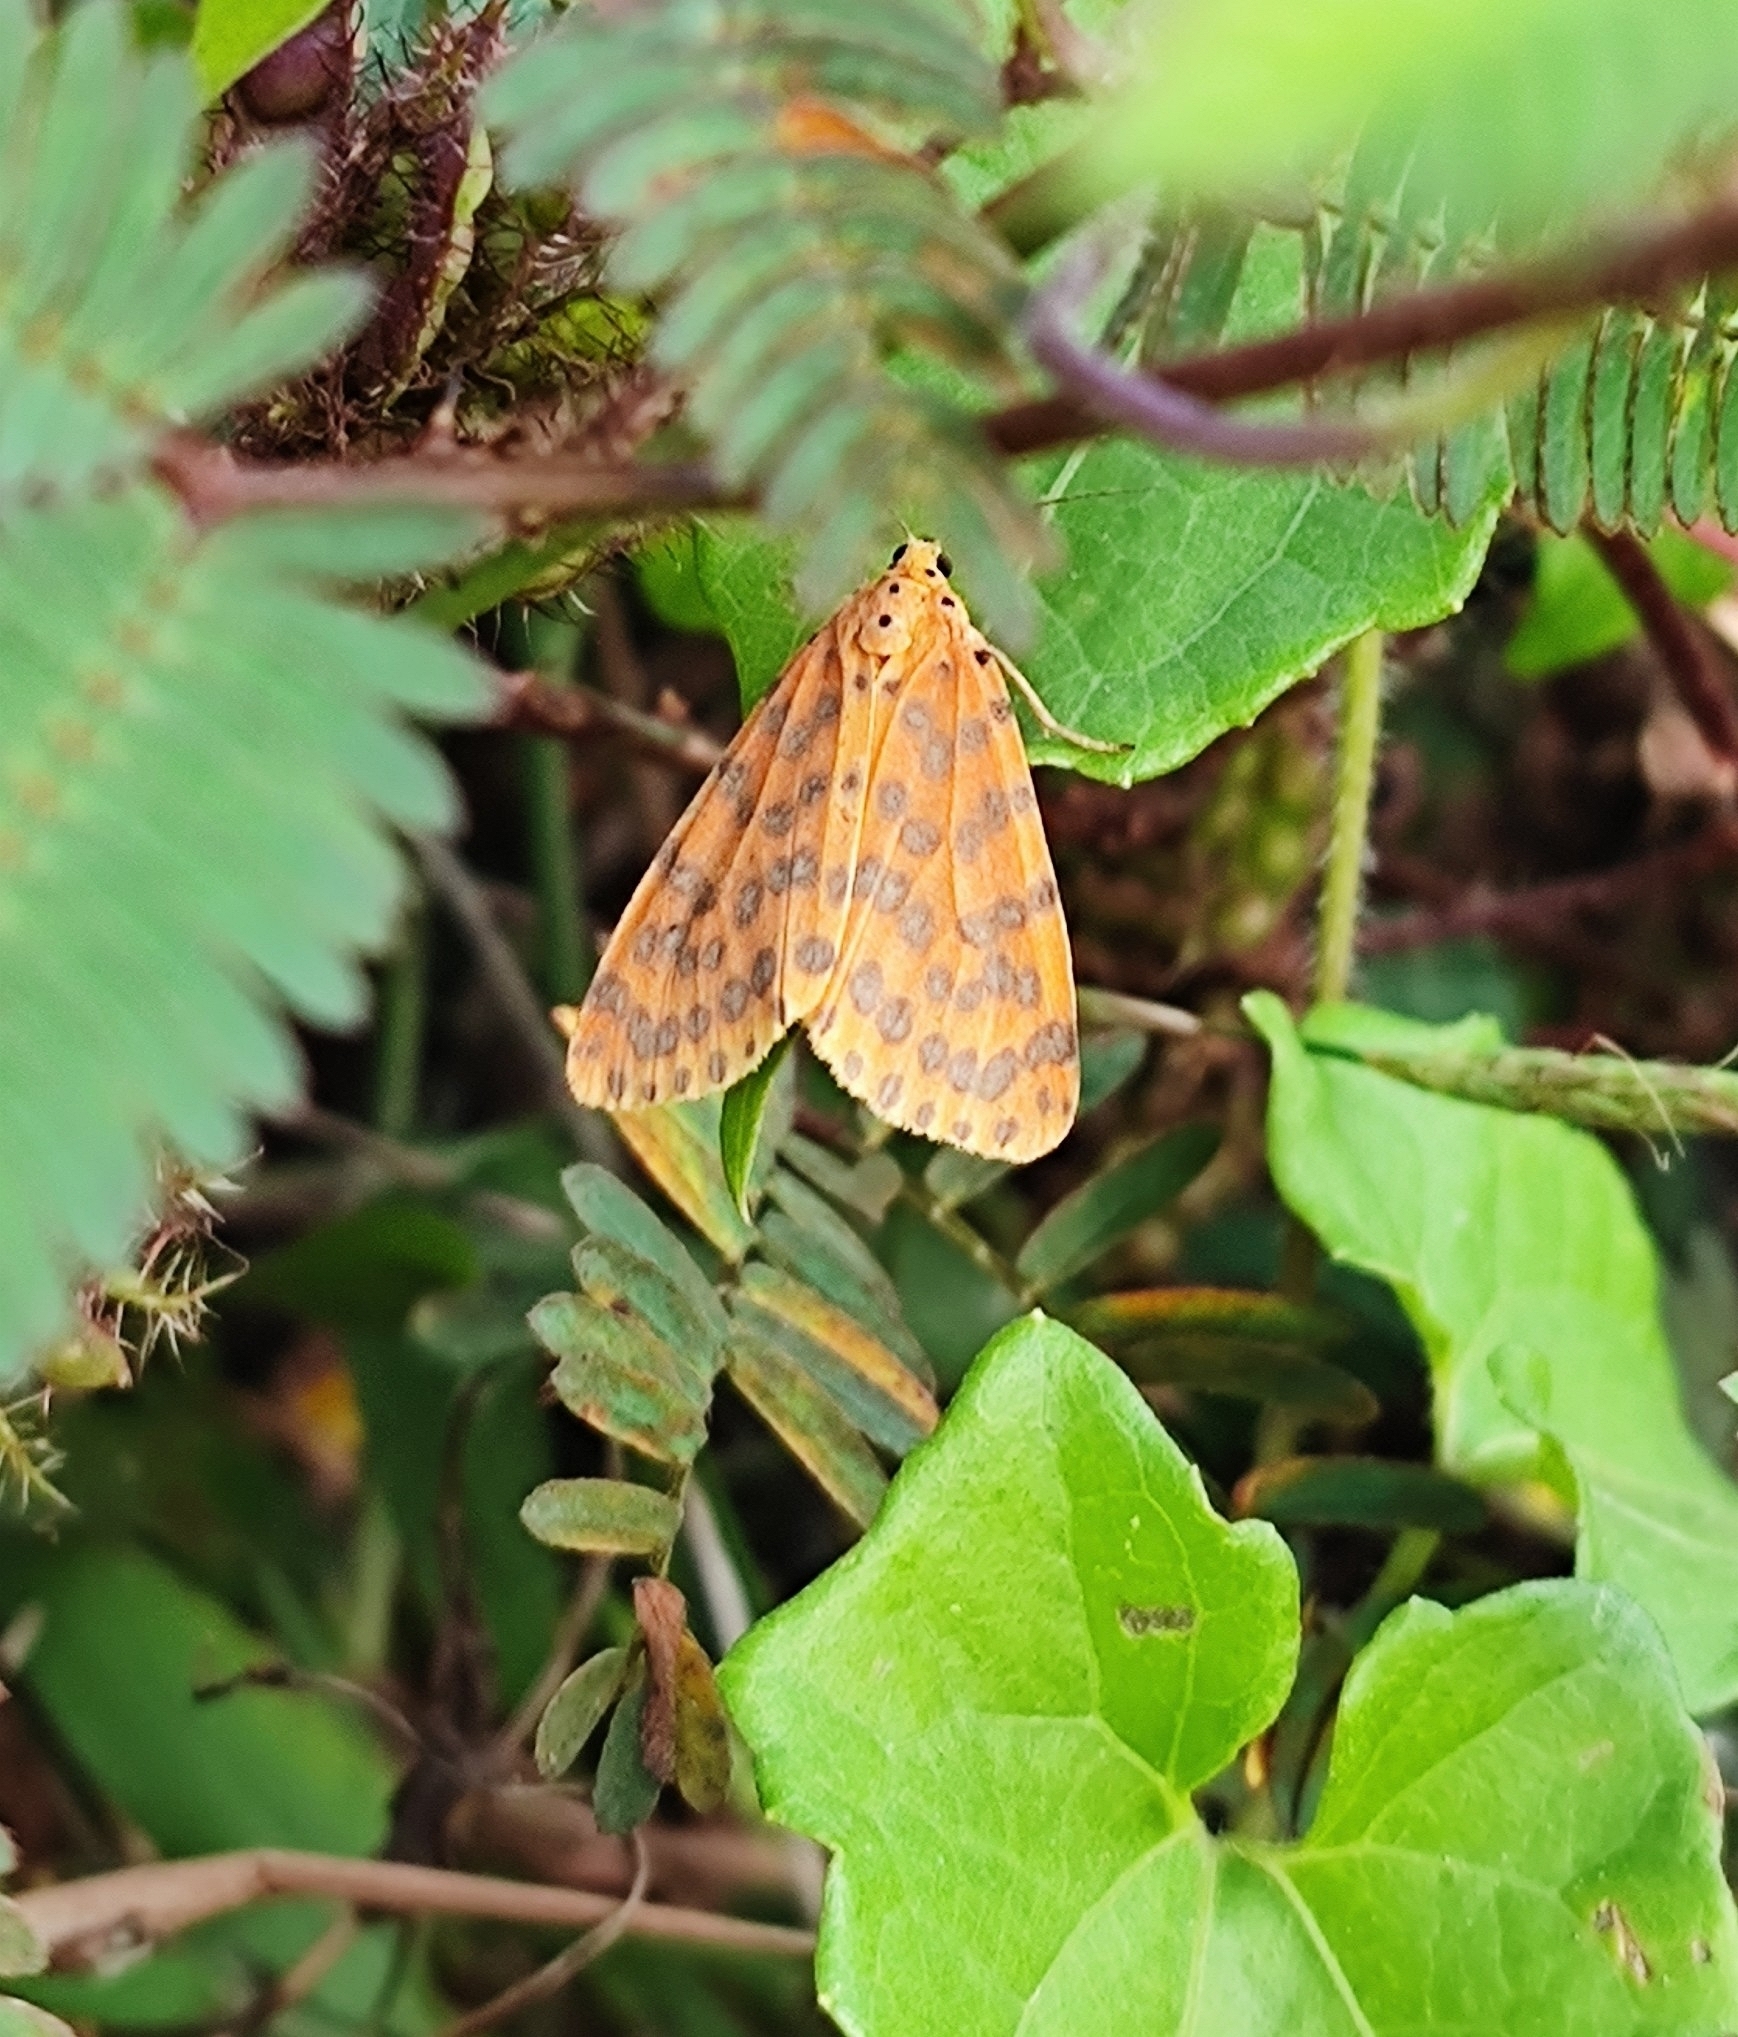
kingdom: Animalia
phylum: Arthropoda
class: Insecta
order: Lepidoptera
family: Erebidae
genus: Argina
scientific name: Argina astrea
